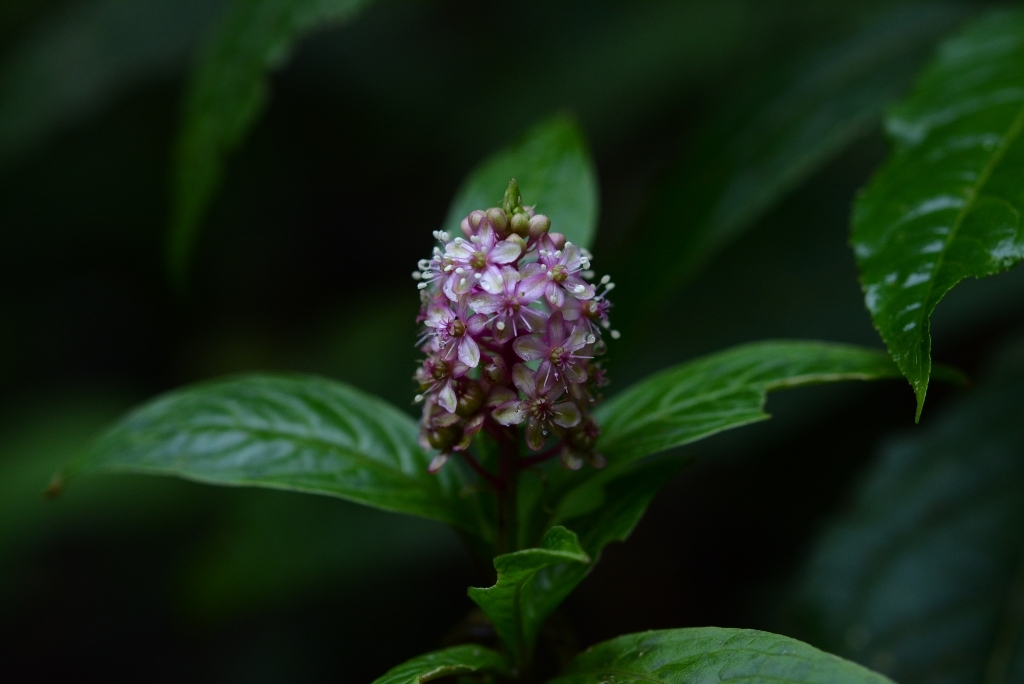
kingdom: Plantae
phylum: Tracheophyta
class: Magnoliopsida
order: Caryophyllales
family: Phytolaccaceae
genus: Phytolacca
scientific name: Phytolacca icosandra
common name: Button pokeweed
